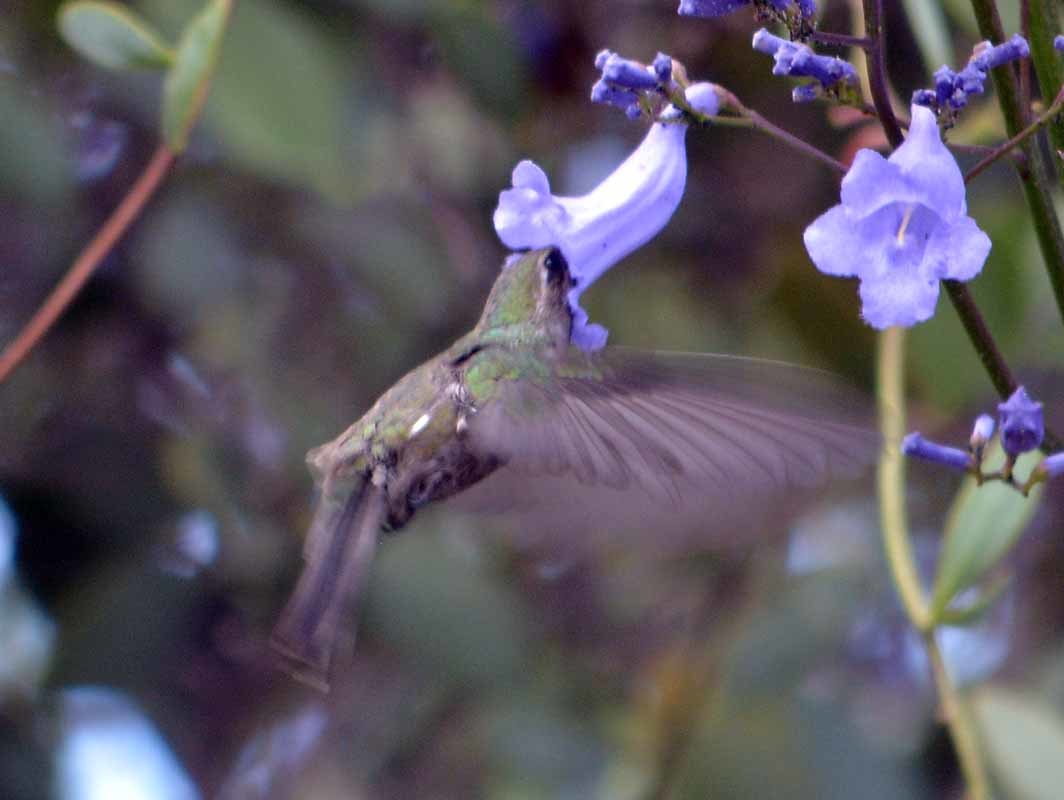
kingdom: Animalia
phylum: Chordata
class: Aves
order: Apodiformes
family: Trochilidae
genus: Cynanthus
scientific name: Cynanthus latirostris
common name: Broad-billed hummingbird
